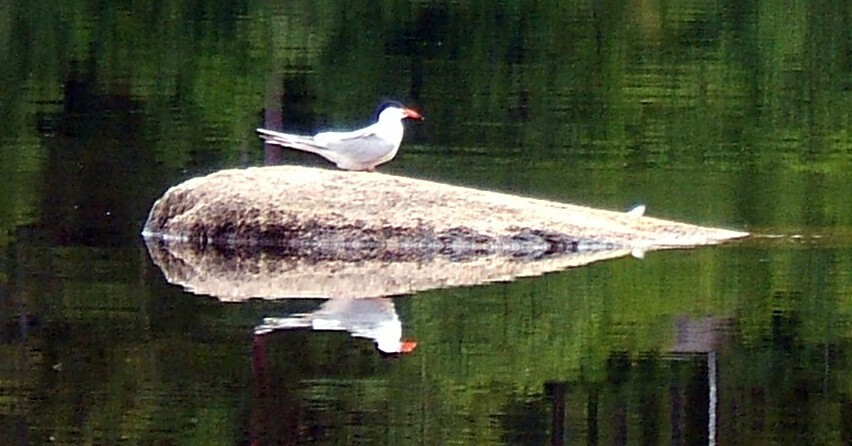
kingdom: Animalia
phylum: Chordata
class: Aves
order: Charadriiformes
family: Laridae
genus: Sterna
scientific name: Sterna hirundo
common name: Common tern
